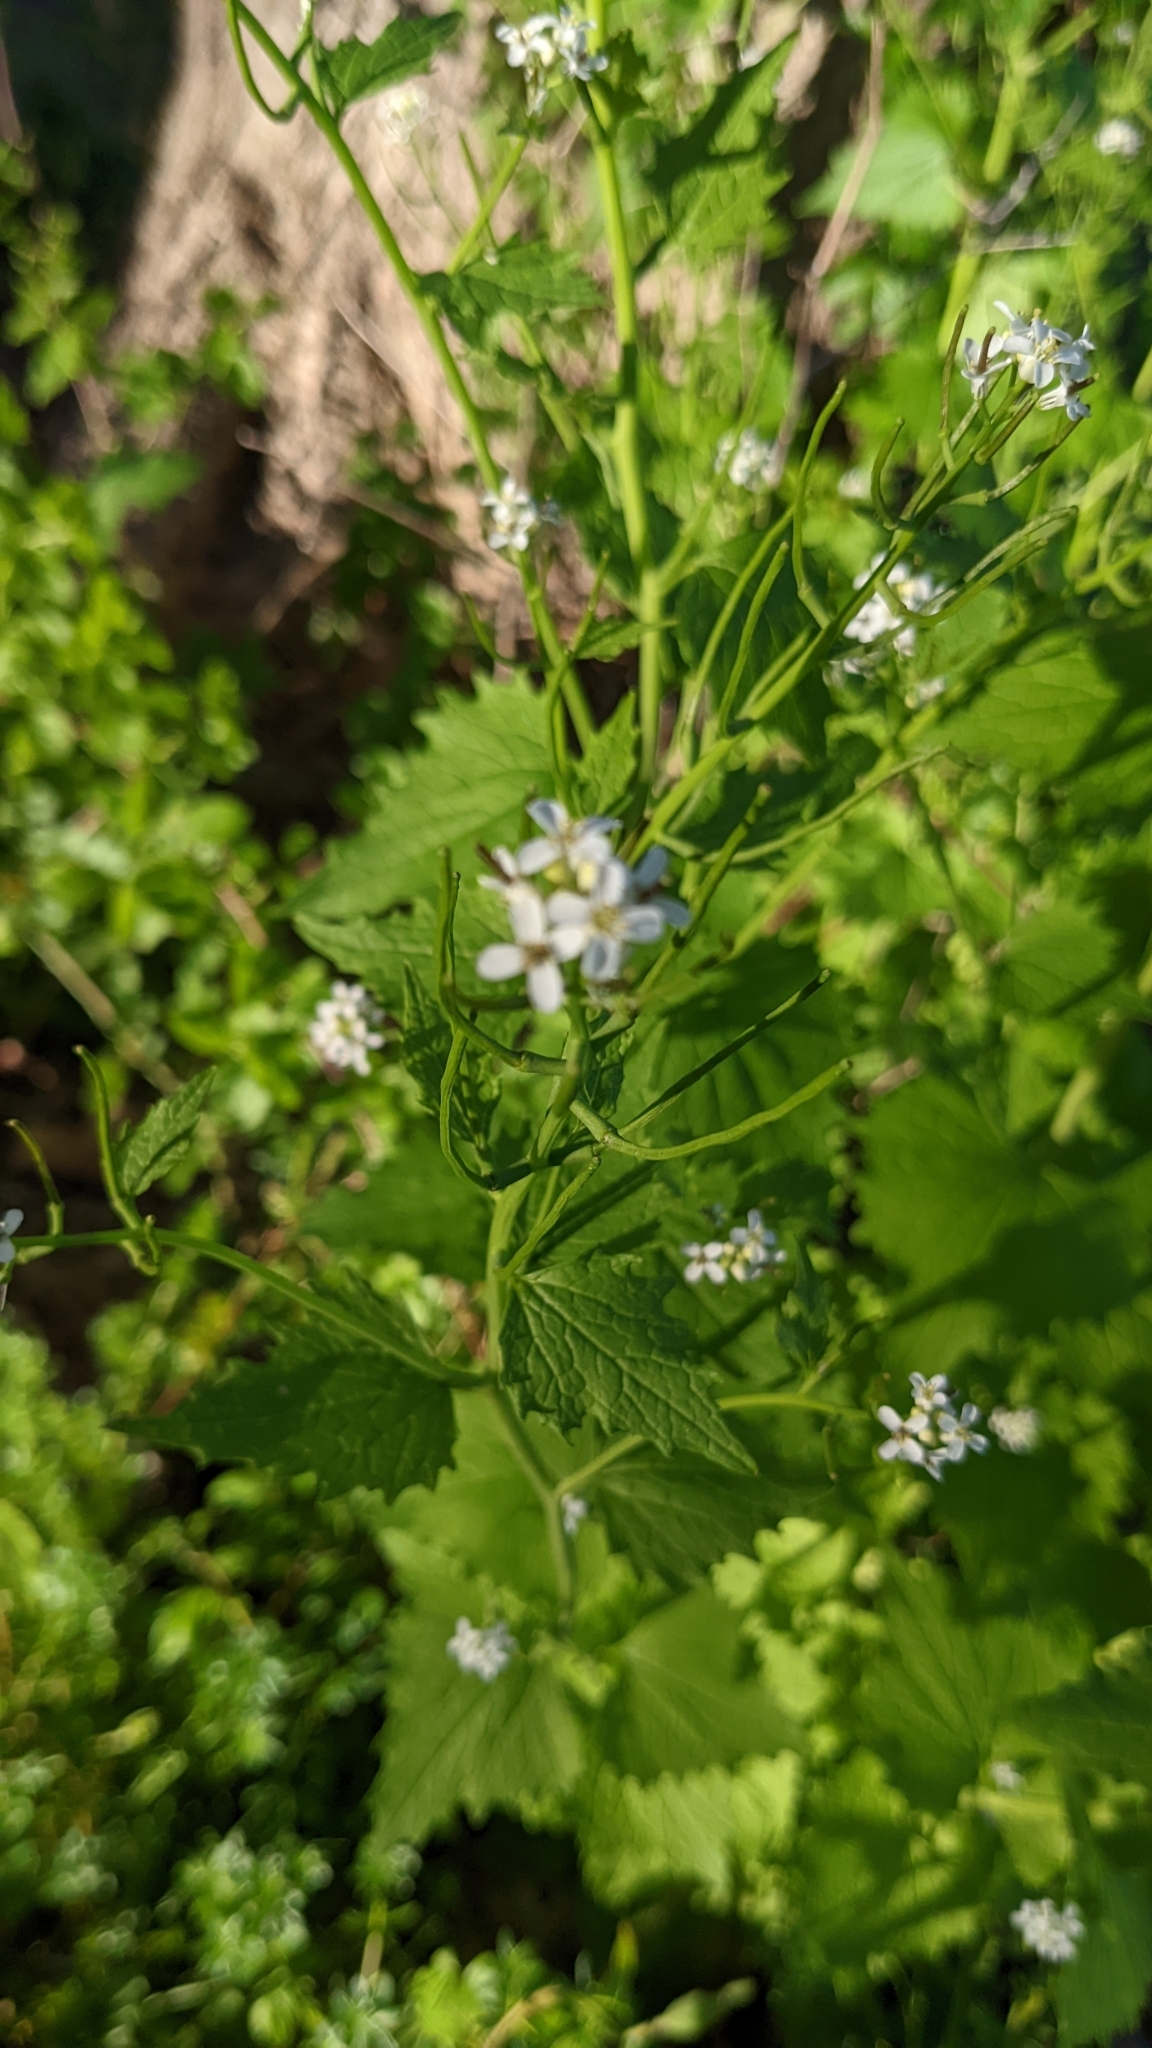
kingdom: Plantae
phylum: Tracheophyta
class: Magnoliopsida
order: Brassicales
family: Brassicaceae
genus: Alliaria
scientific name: Alliaria petiolata
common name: Garlic mustard
